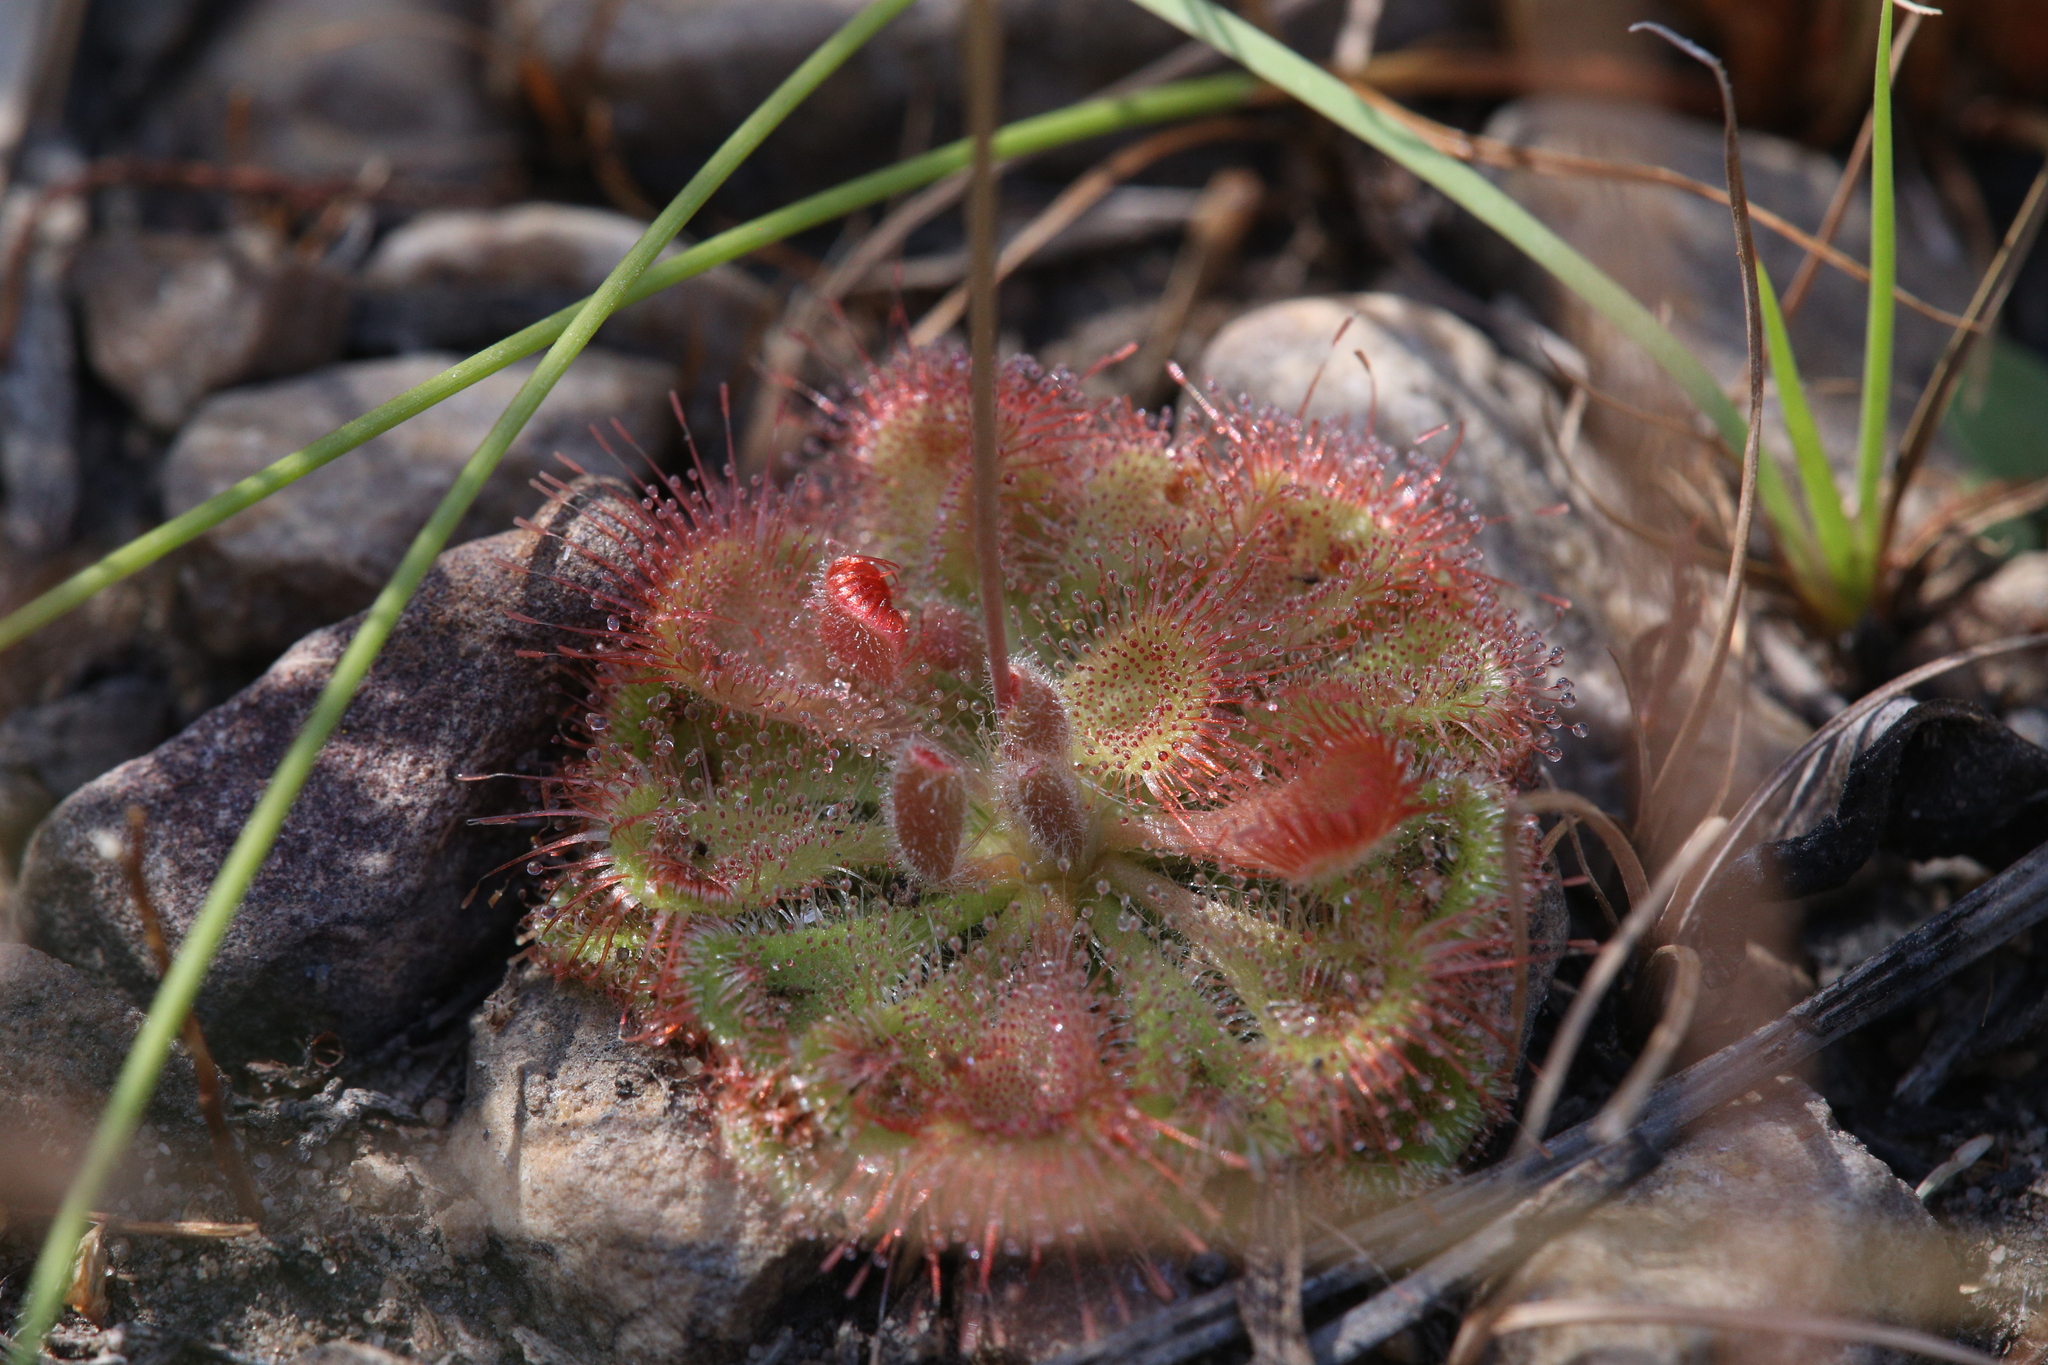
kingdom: Plantae
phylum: Tracheophyta
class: Magnoliopsida
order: Caryophyllales
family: Droseraceae
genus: Drosera
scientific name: Drosera spatulata
